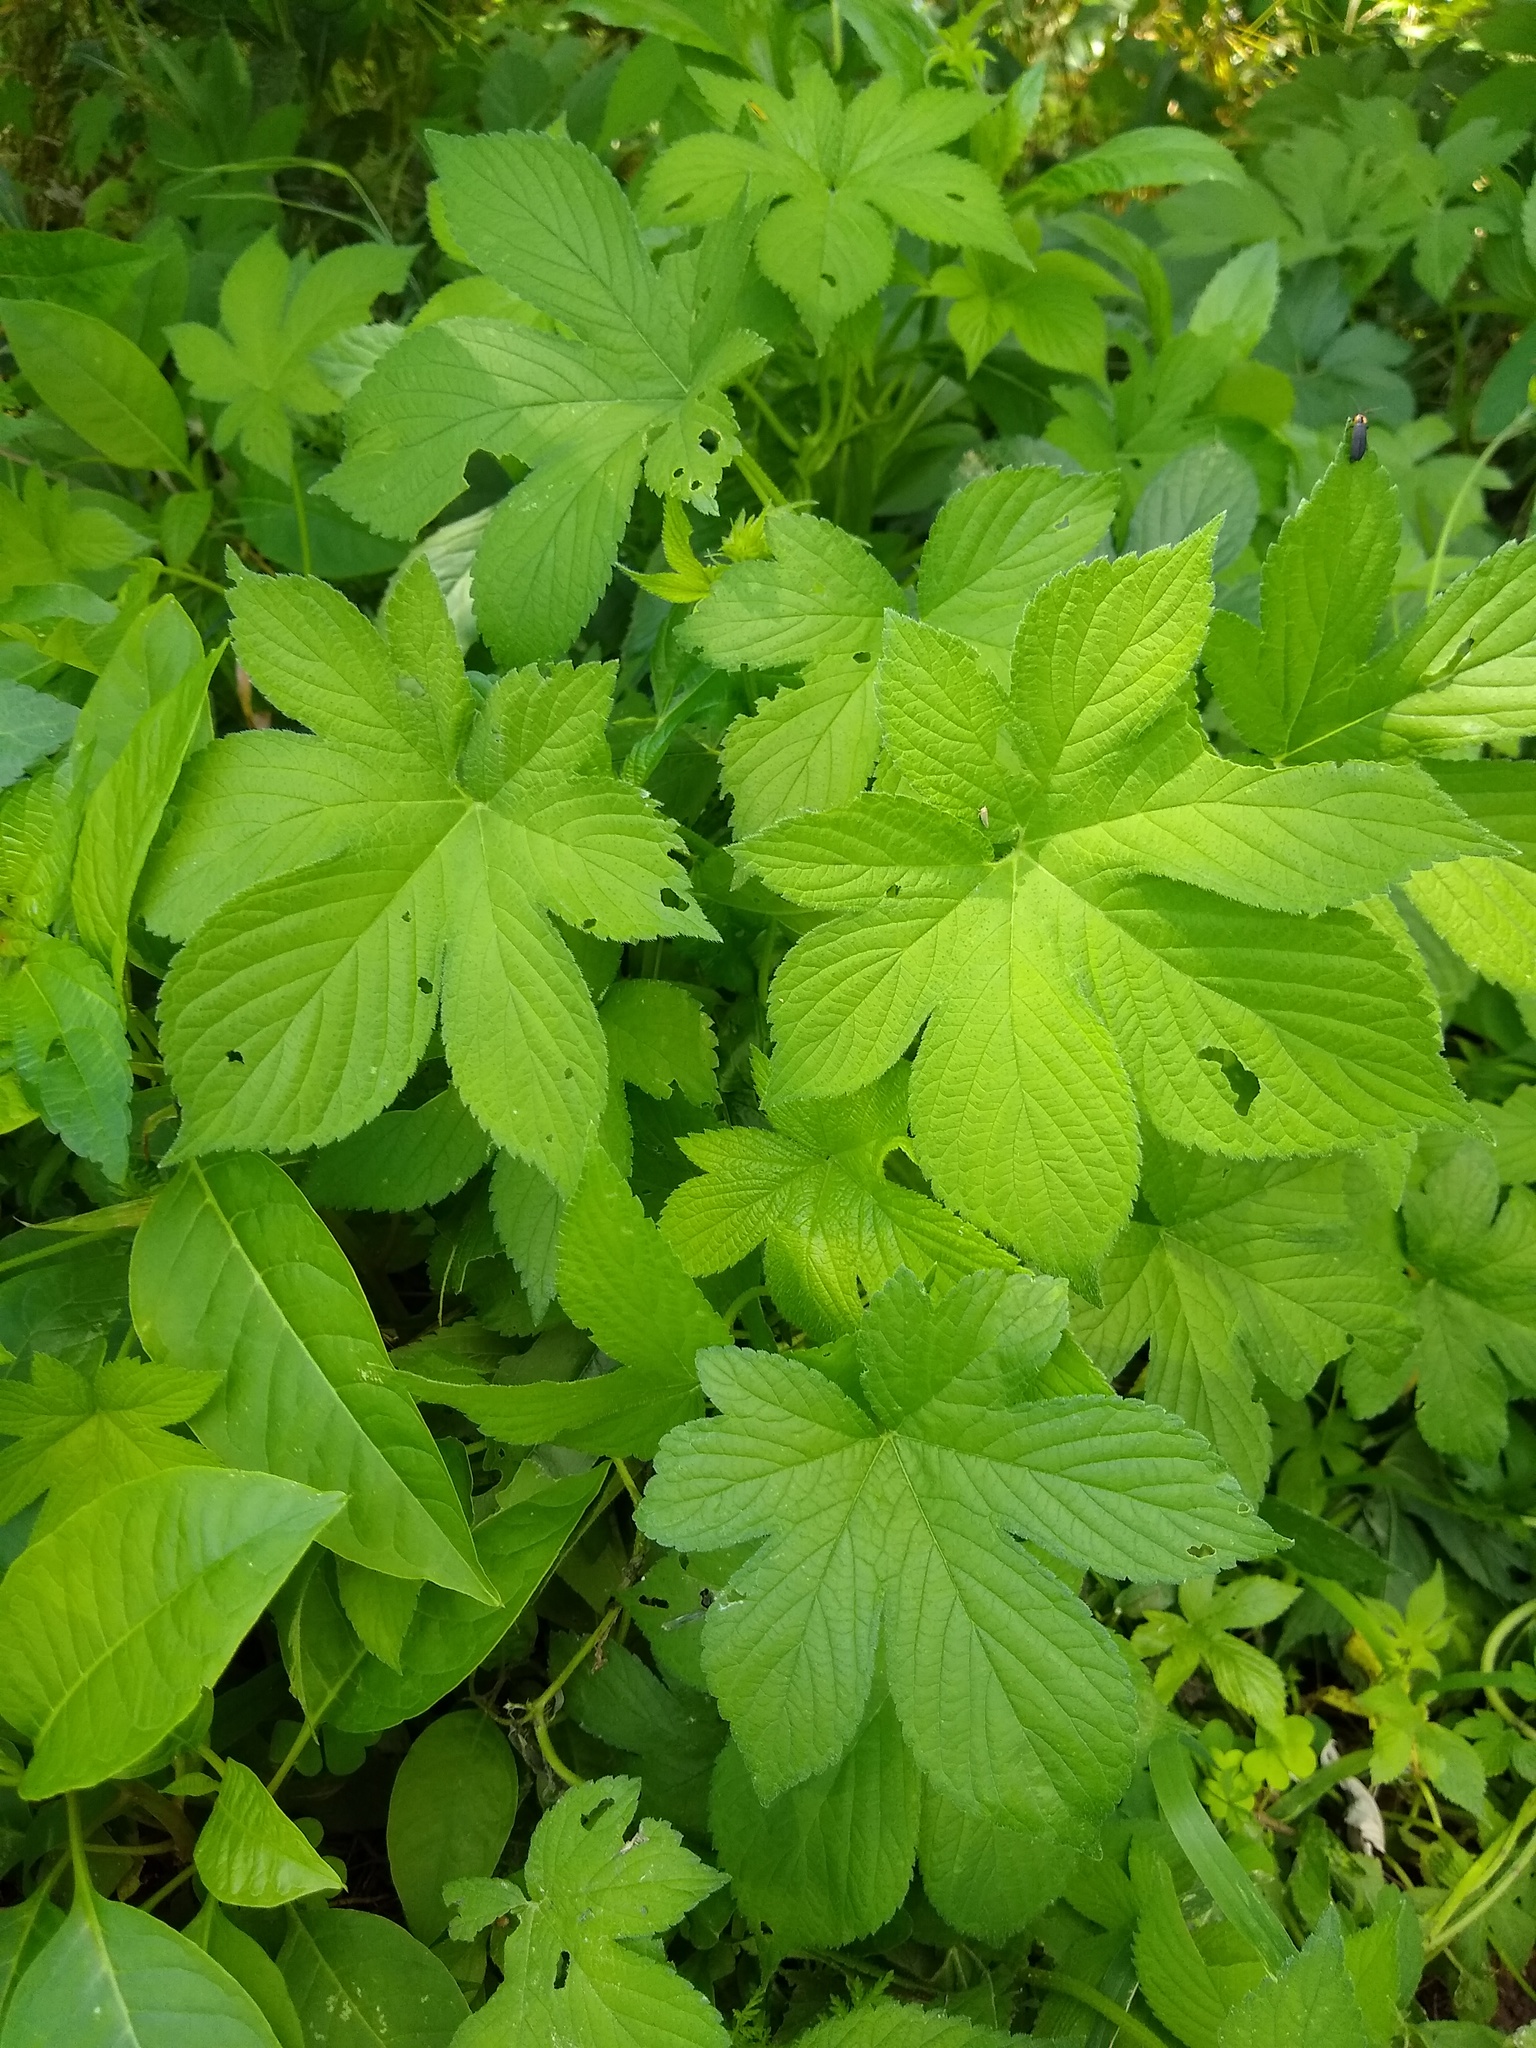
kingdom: Plantae
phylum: Tracheophyta
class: Magnoliopsida
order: Rosales
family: Cannabaceae
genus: Humulus
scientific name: Humulus scandens
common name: Japanese hop
